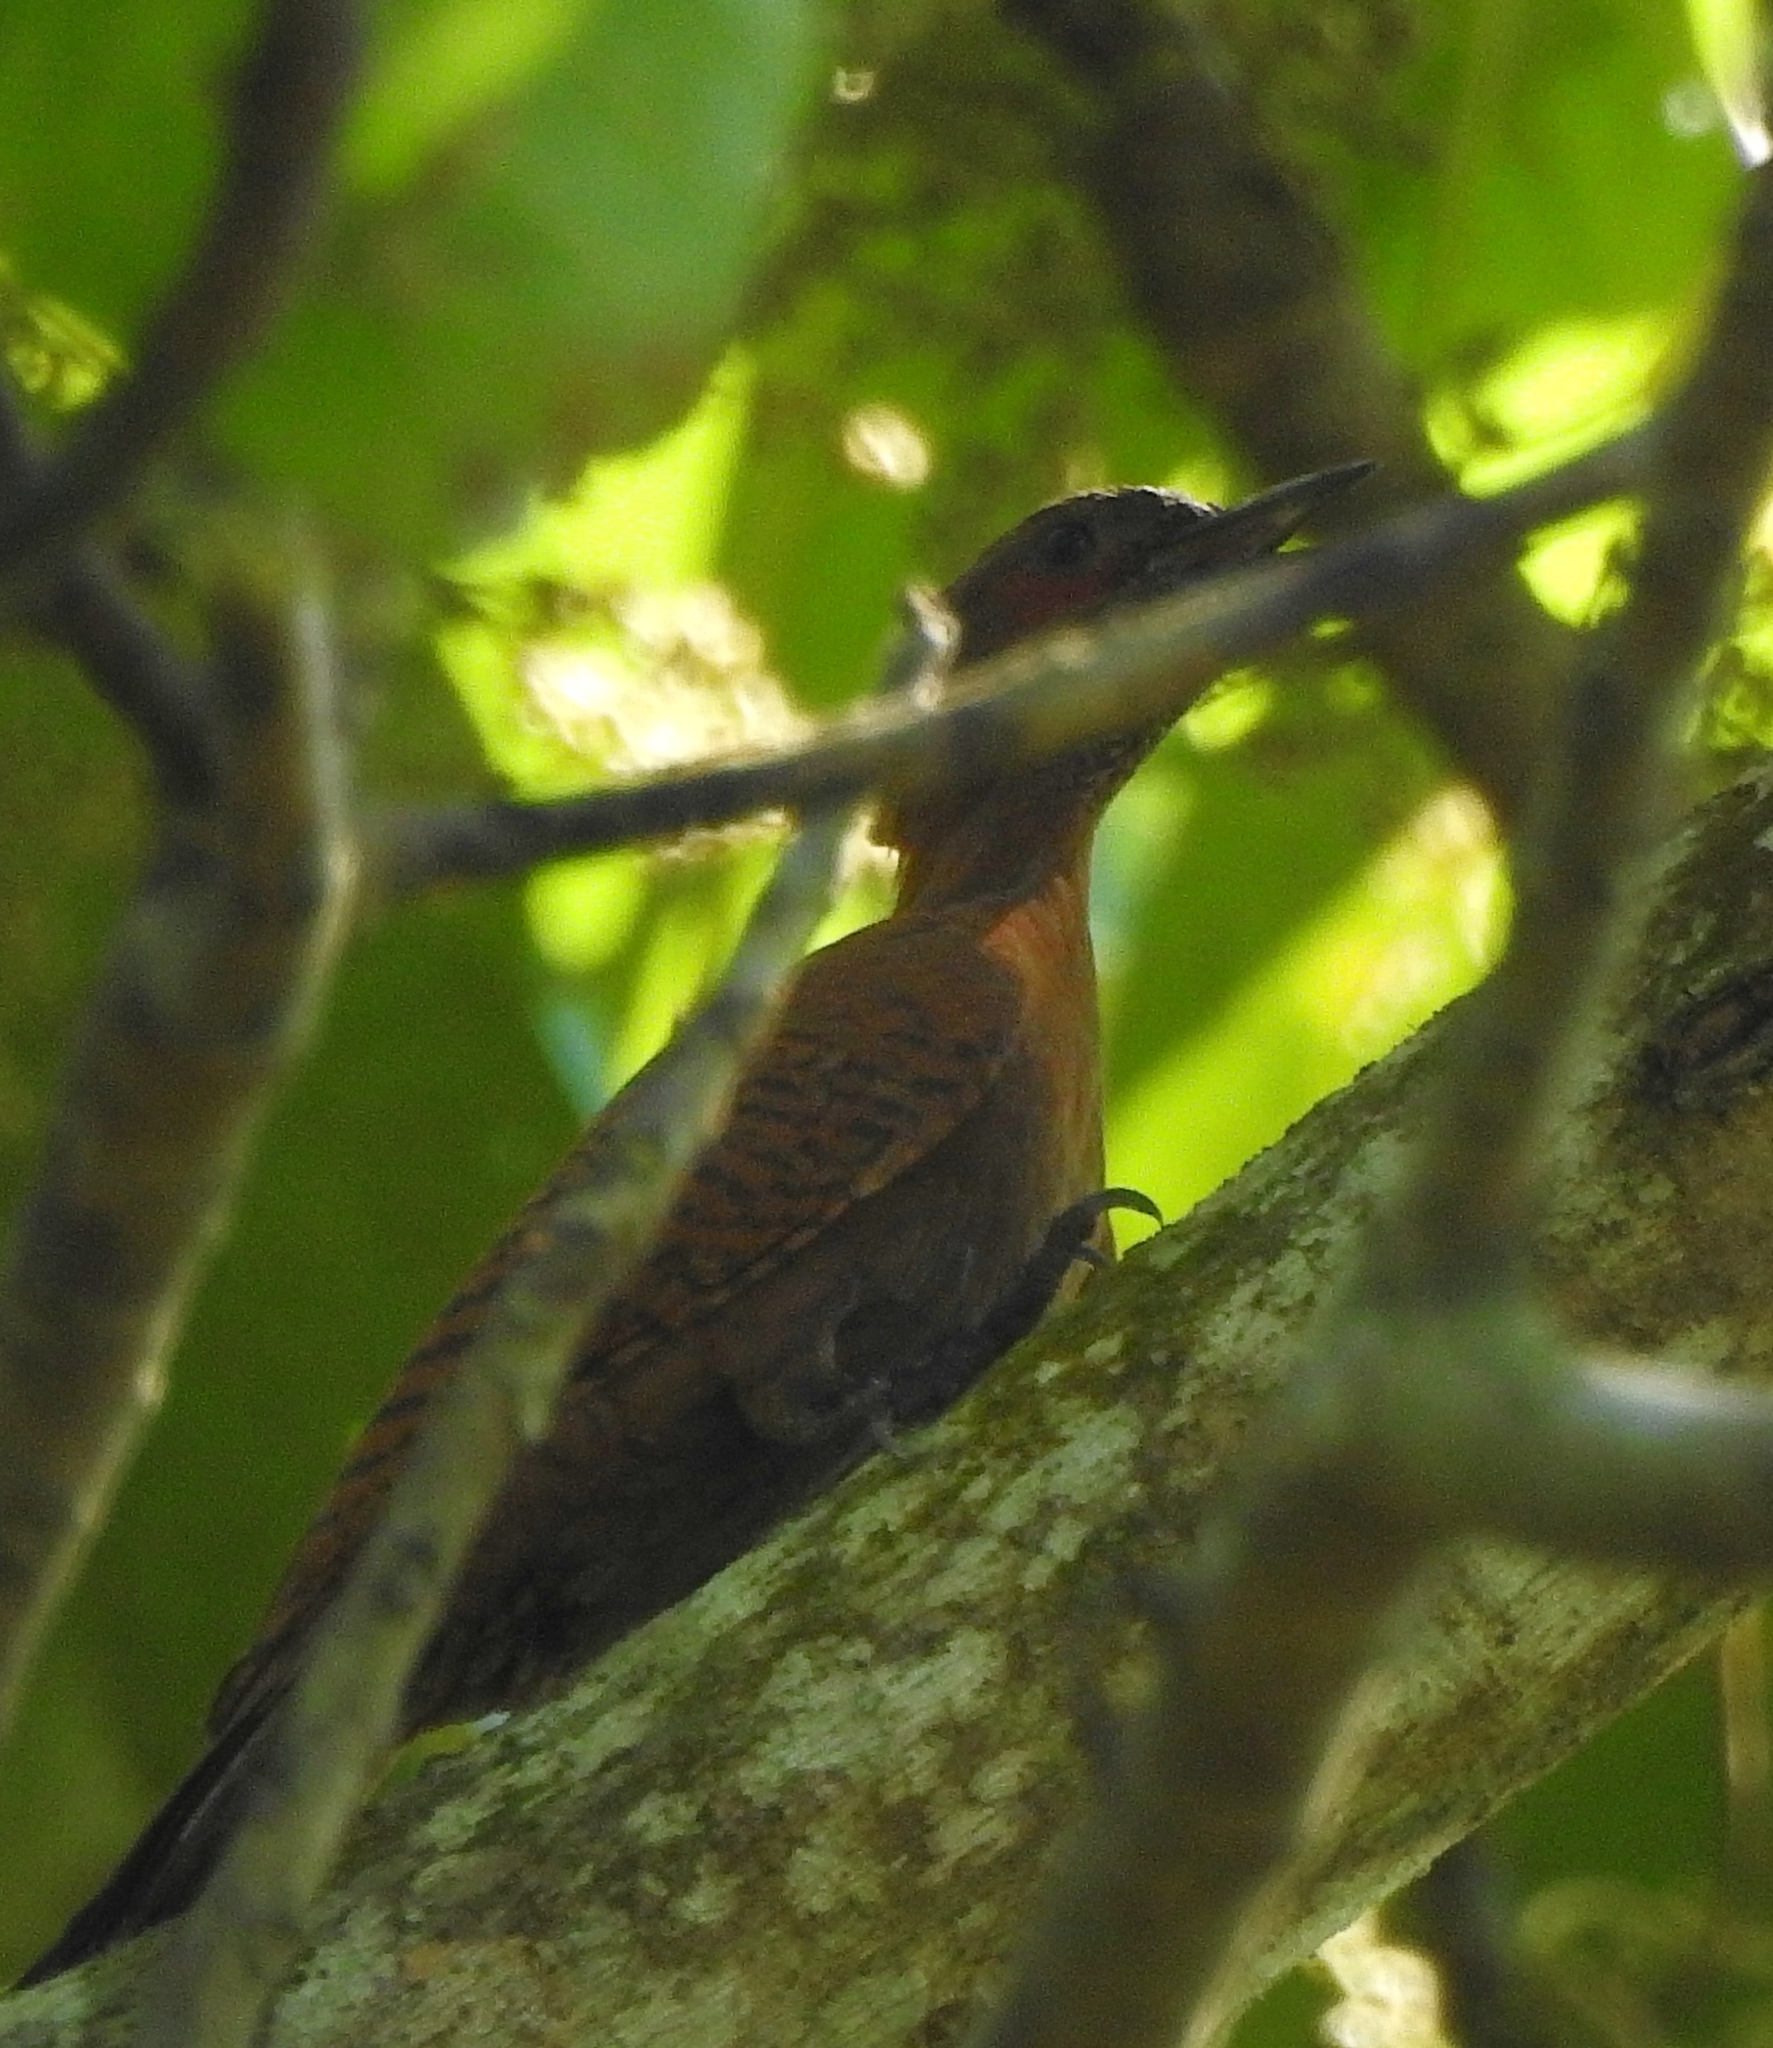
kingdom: Animalia
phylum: Chordata
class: Aves
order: Piciformes
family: Picidae
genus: Micropternus
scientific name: Micropternus brachyurus
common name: Rufous woodpecker
